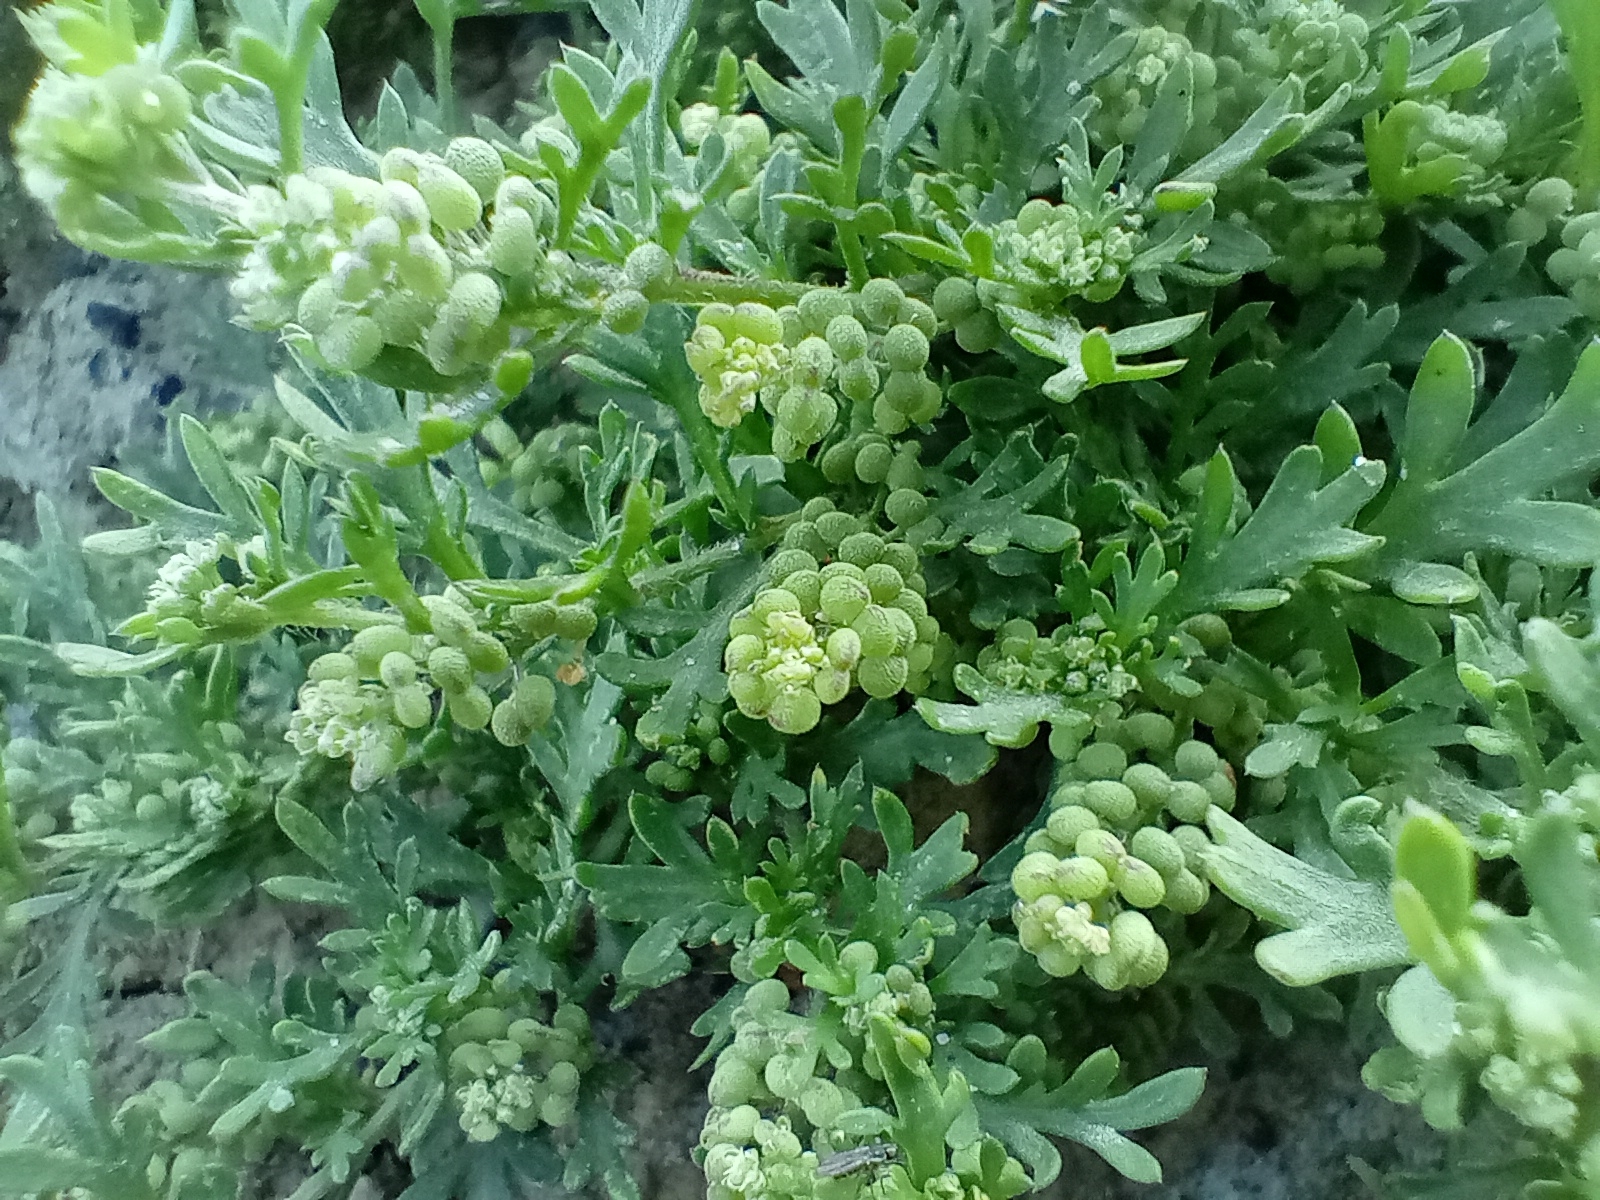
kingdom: Plantae
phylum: Tracheophyta
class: Magnoliopsida
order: Brassicales
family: Brassicaceae
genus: Lepidium
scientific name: Lepidium didymum
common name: Lesser swinecress
